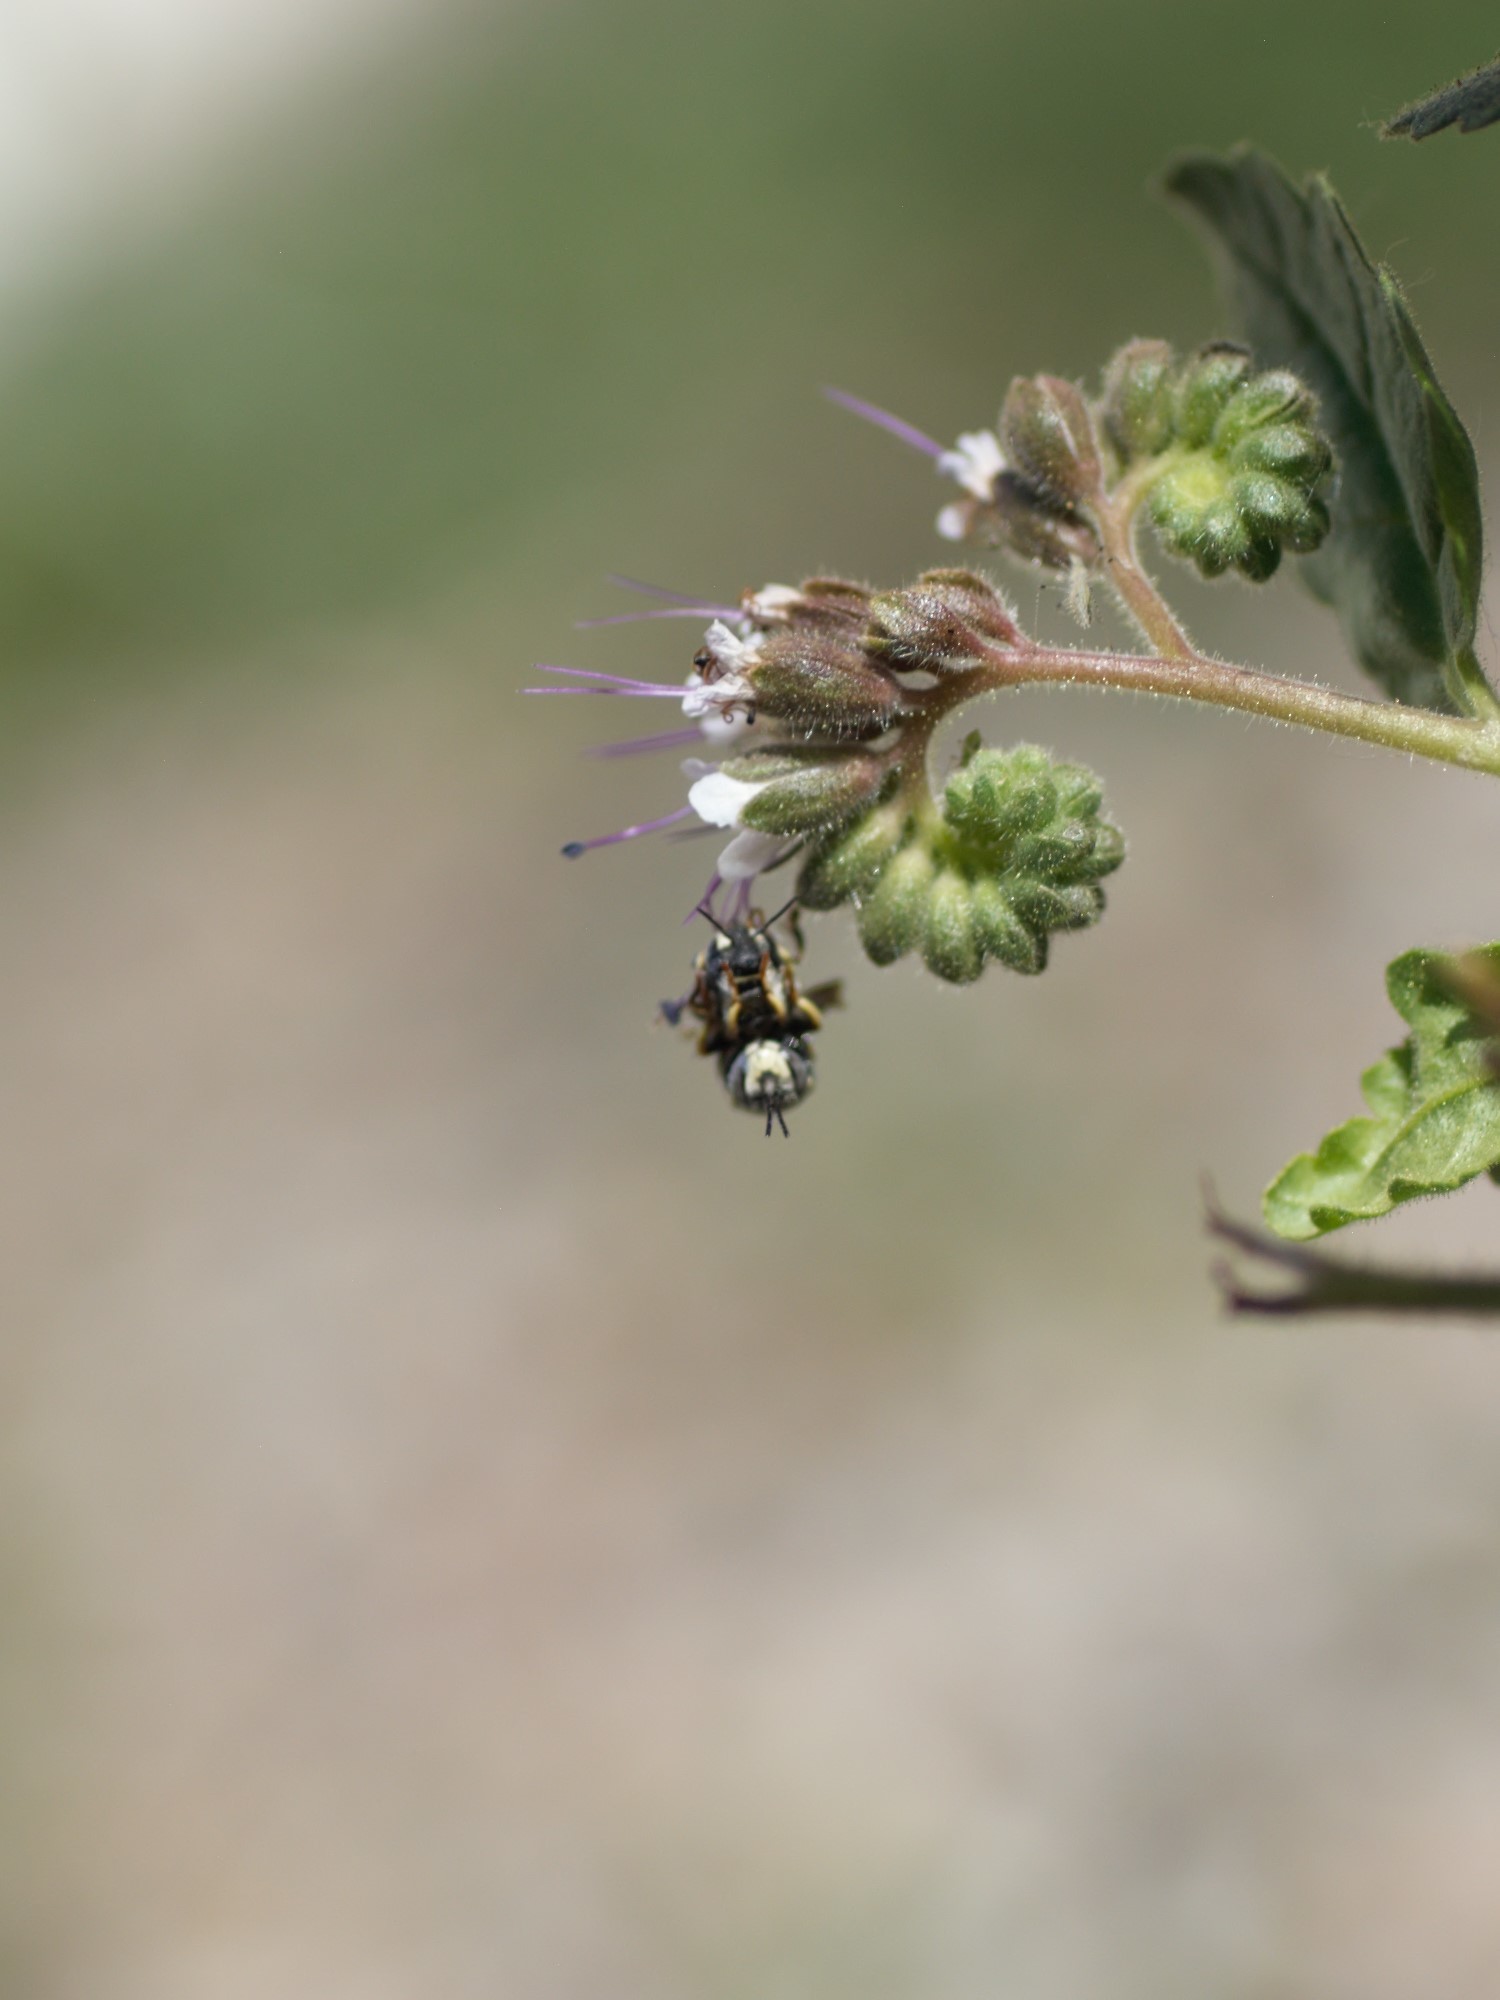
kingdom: Animalia
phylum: Arthropoda
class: Insecta
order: Hymenoptera
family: Megachilidae
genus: Anthidiellum
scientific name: Anthidiellum notatum
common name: Northern rotund-resin bee
